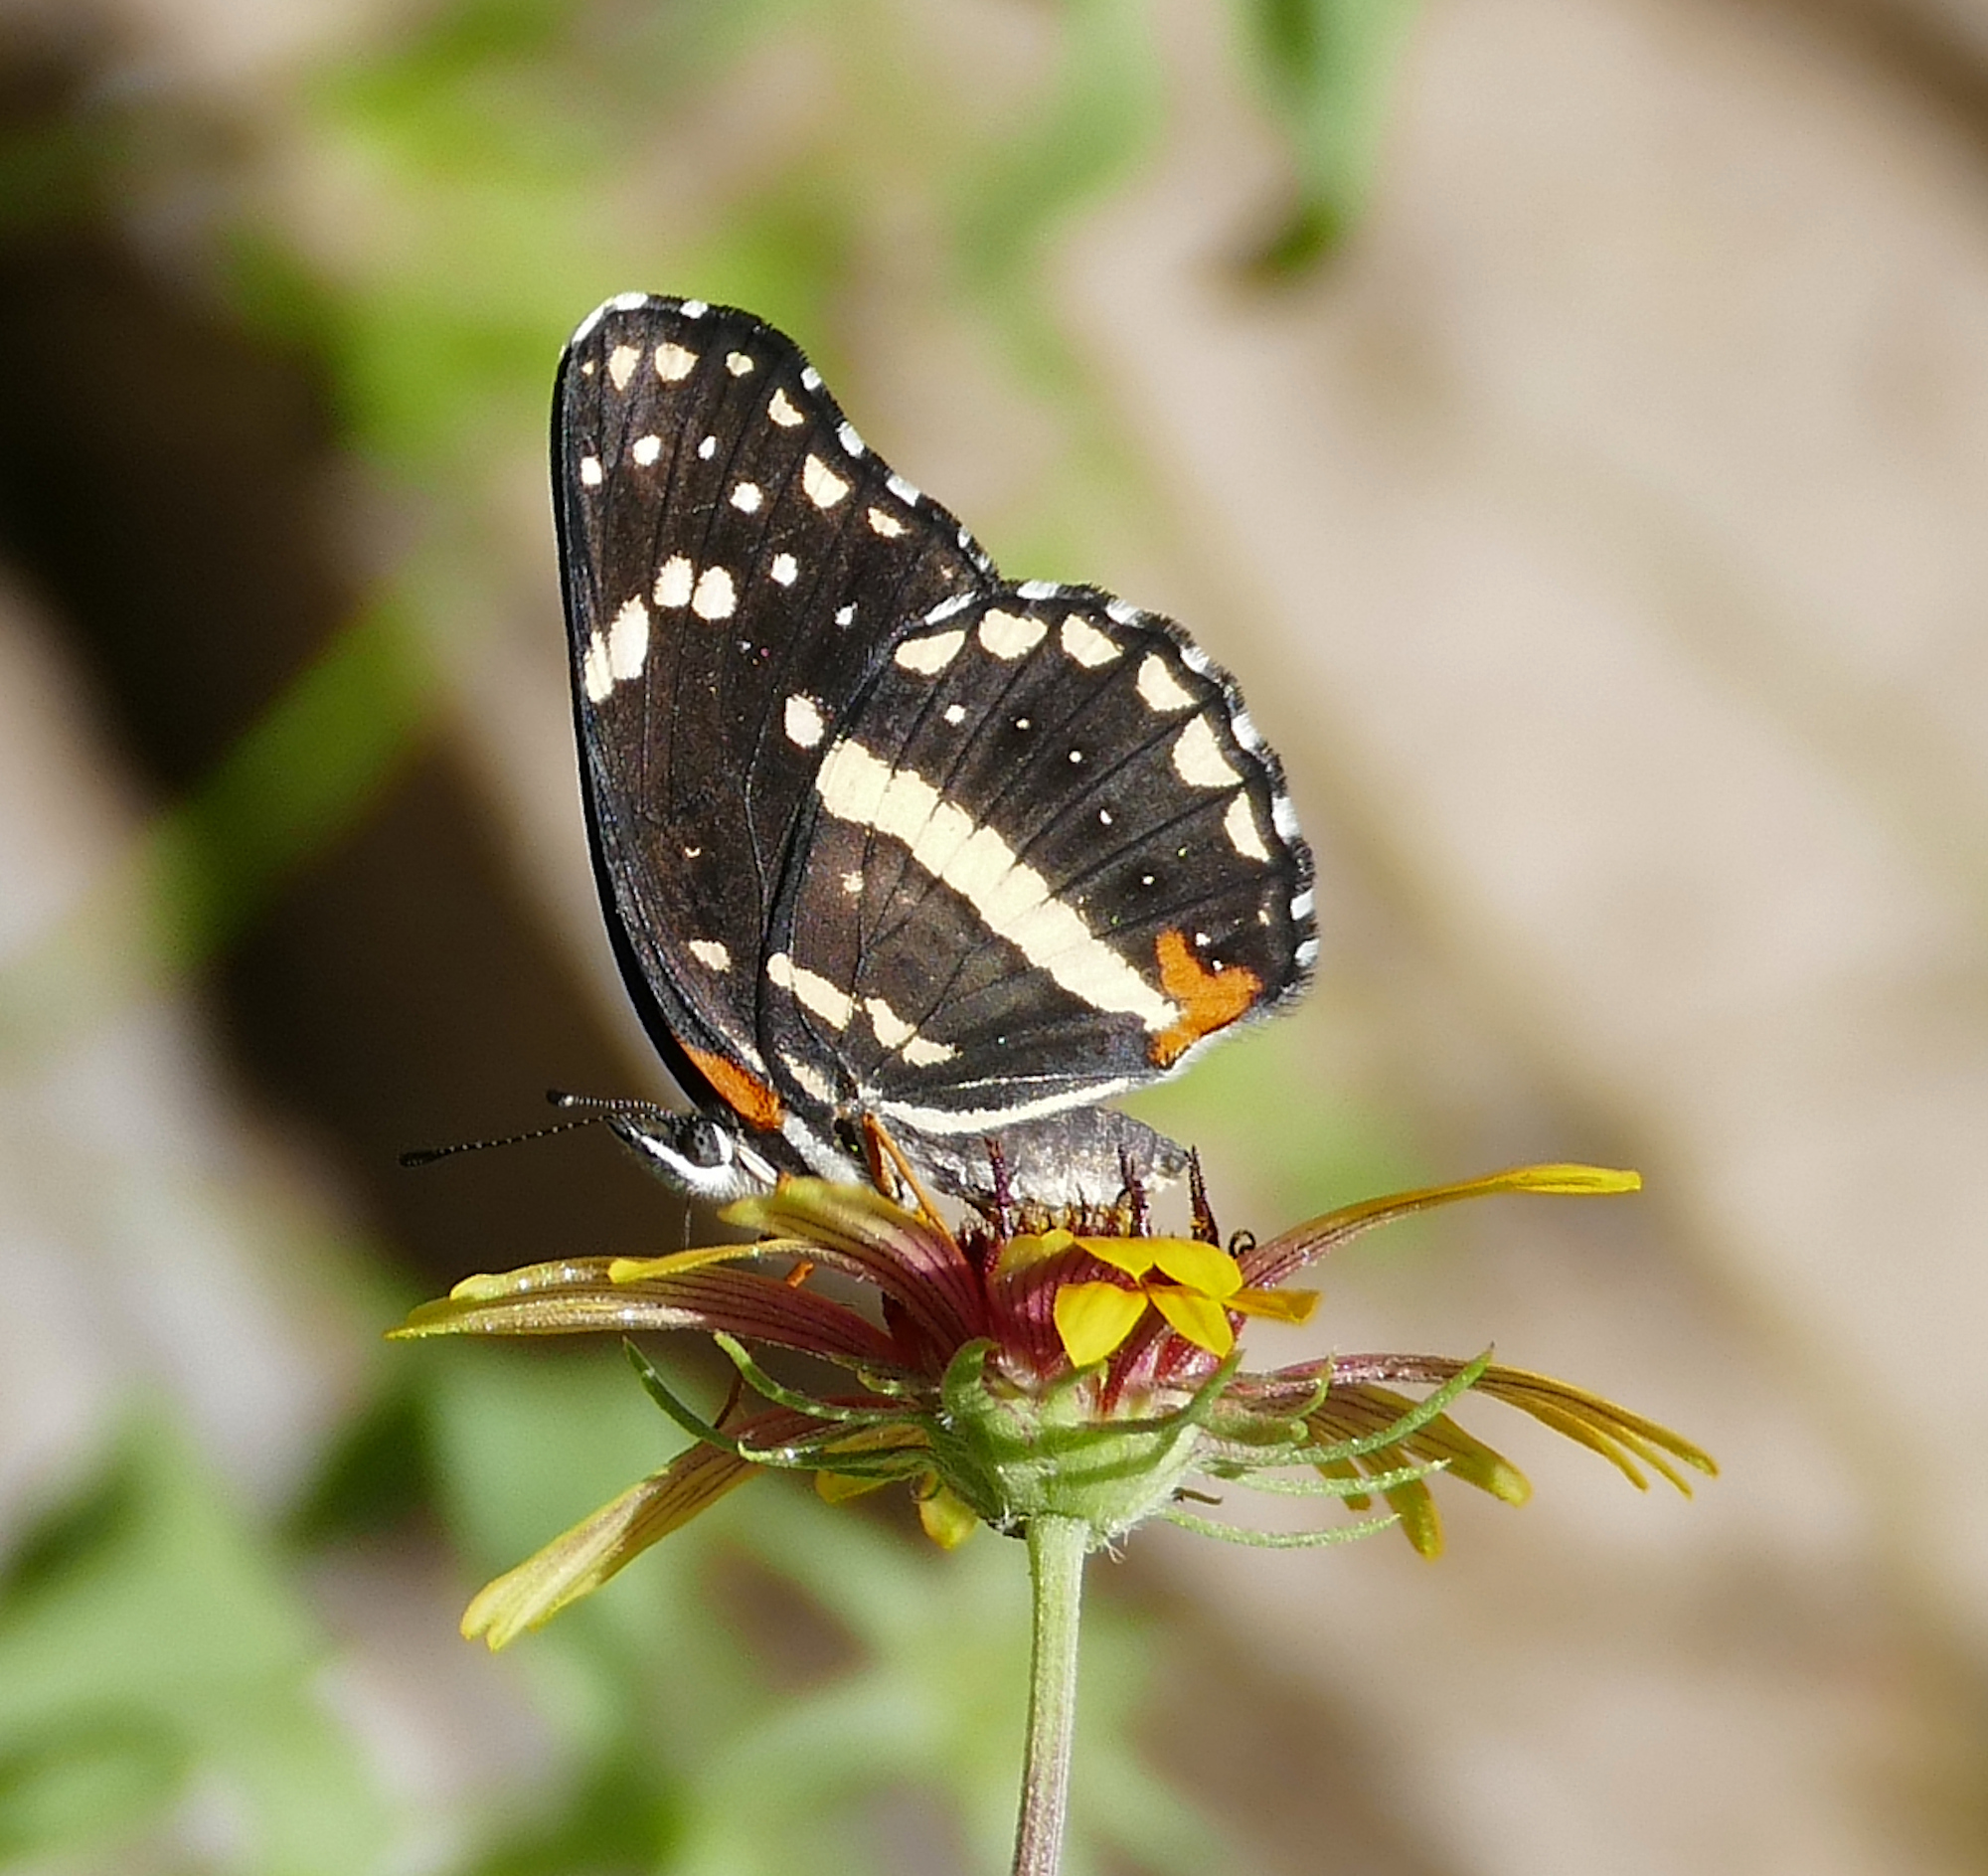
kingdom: Animalia
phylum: Arthropoda
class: Insecta
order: Lepidoptera
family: Nymphalidae
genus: Chlosyne
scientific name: Chlosyne lacinia
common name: Bordered patch
